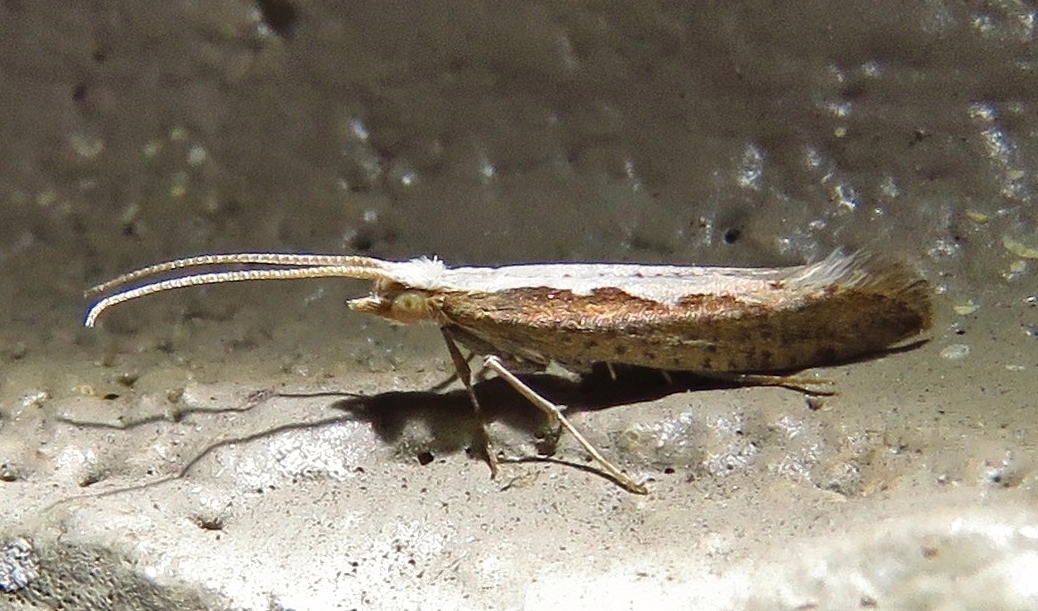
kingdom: Animalia
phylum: Arthropoda
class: Insecta
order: Lepidoptera
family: Plutellidae
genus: Plutella
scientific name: Plutella xylostella
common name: Diamond-back moth
